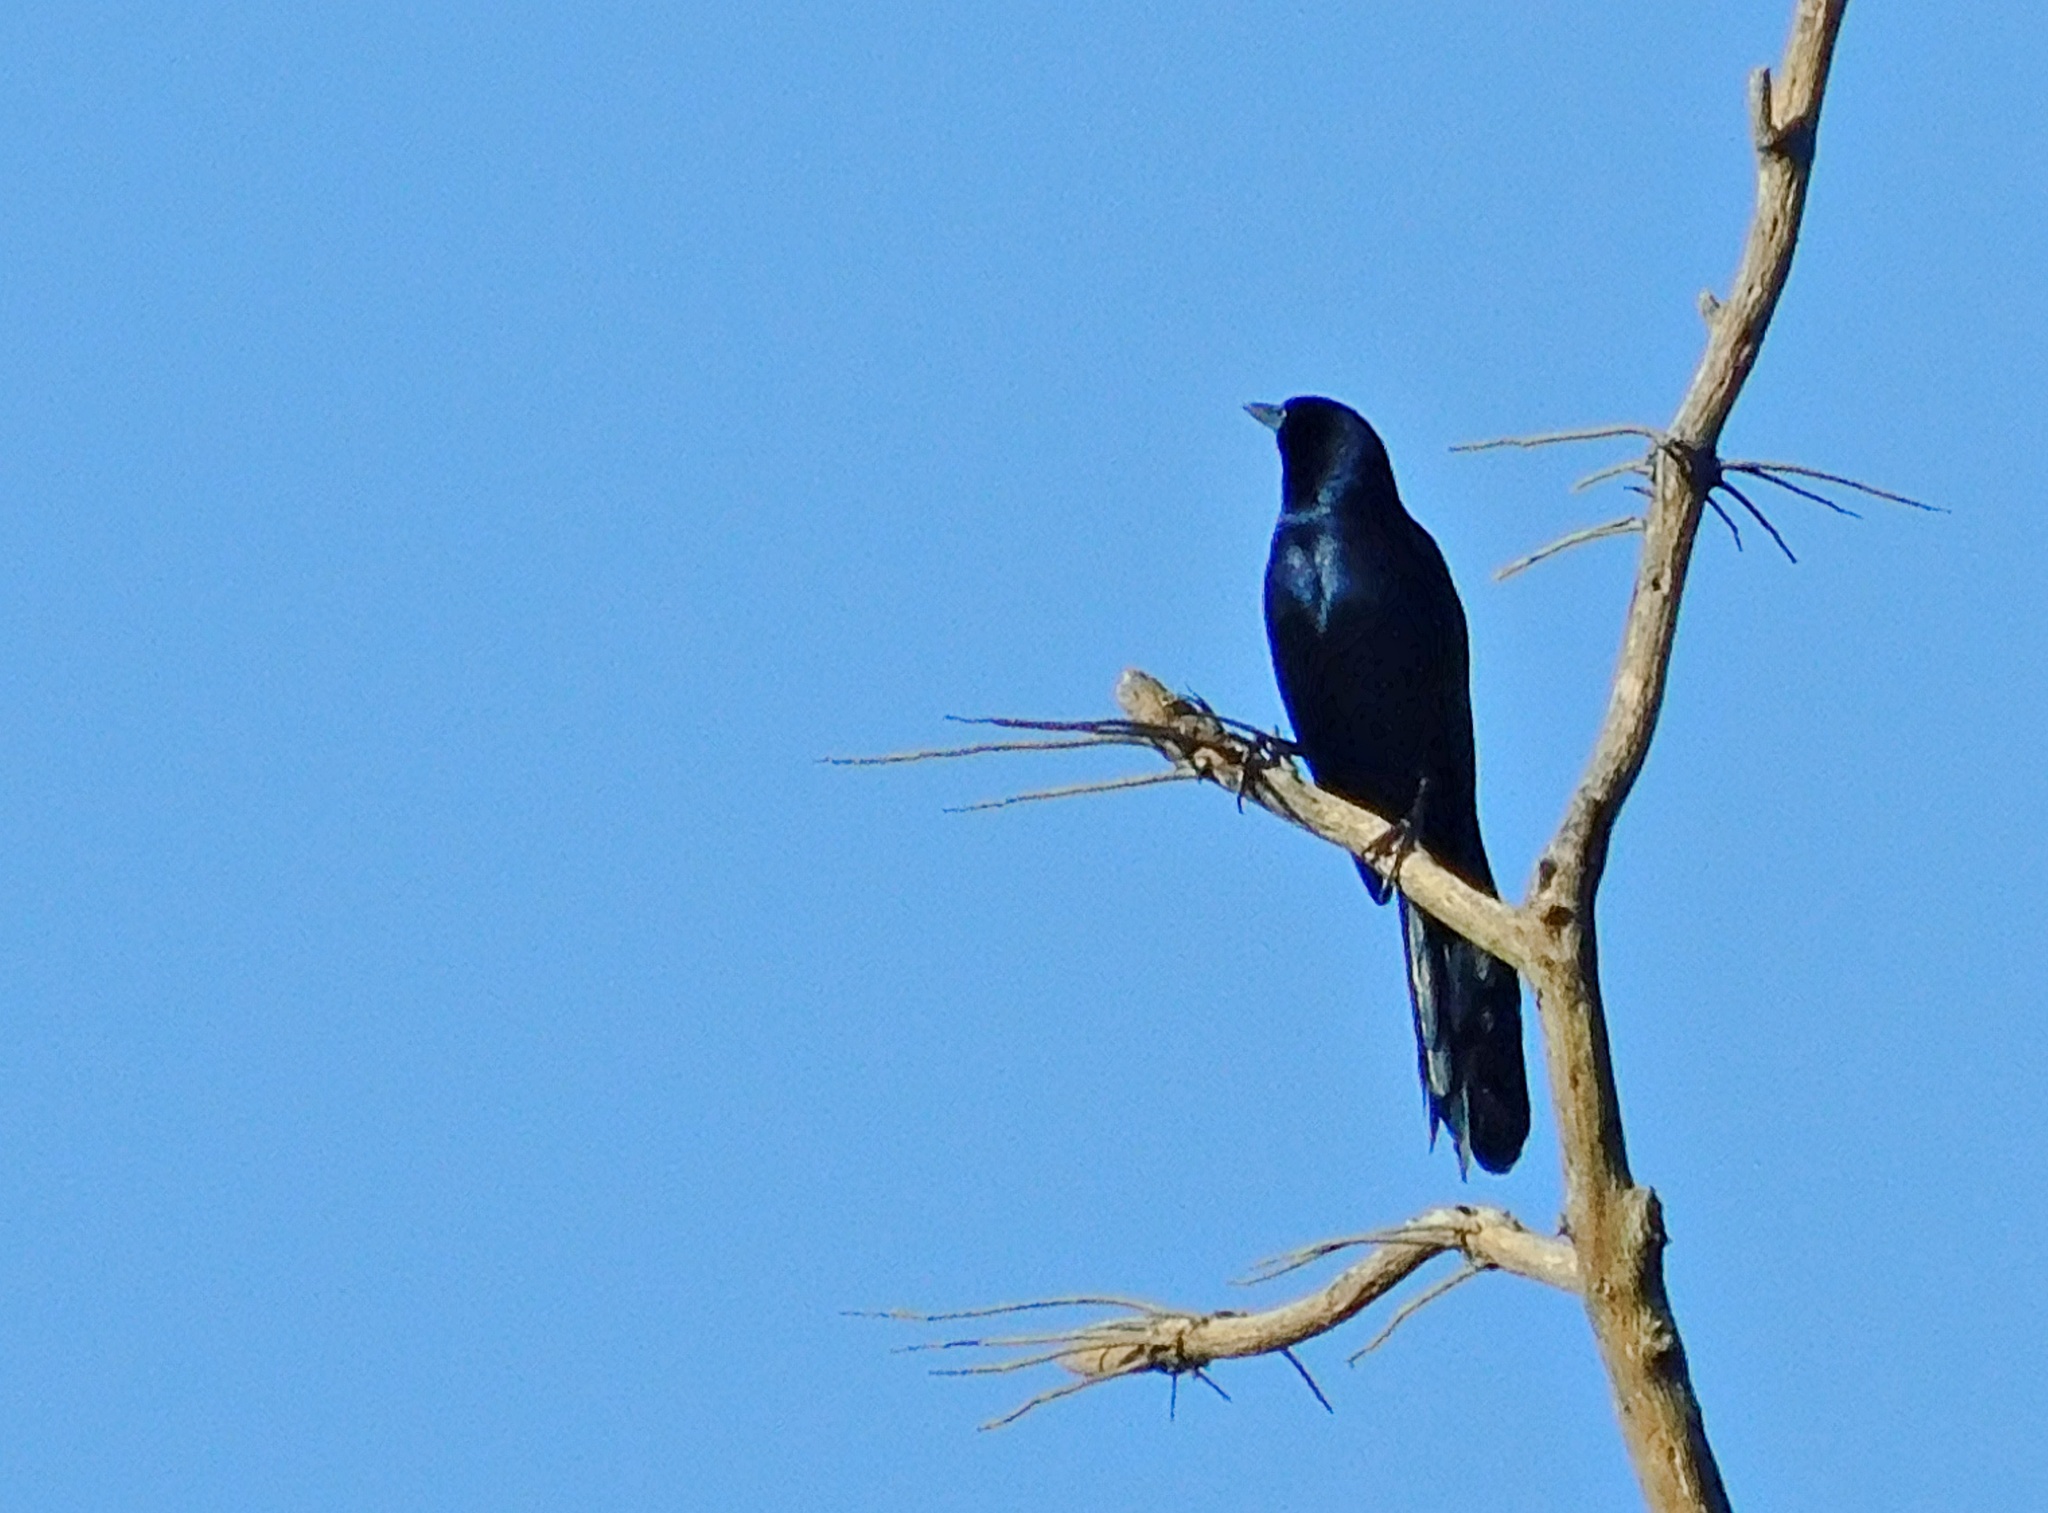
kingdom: Animalia
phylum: Chordata
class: Aves
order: Passeriformes
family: Icteridae
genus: Quiscalus
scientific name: Quiscalus mexicanus
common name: Great-tailed grackle
